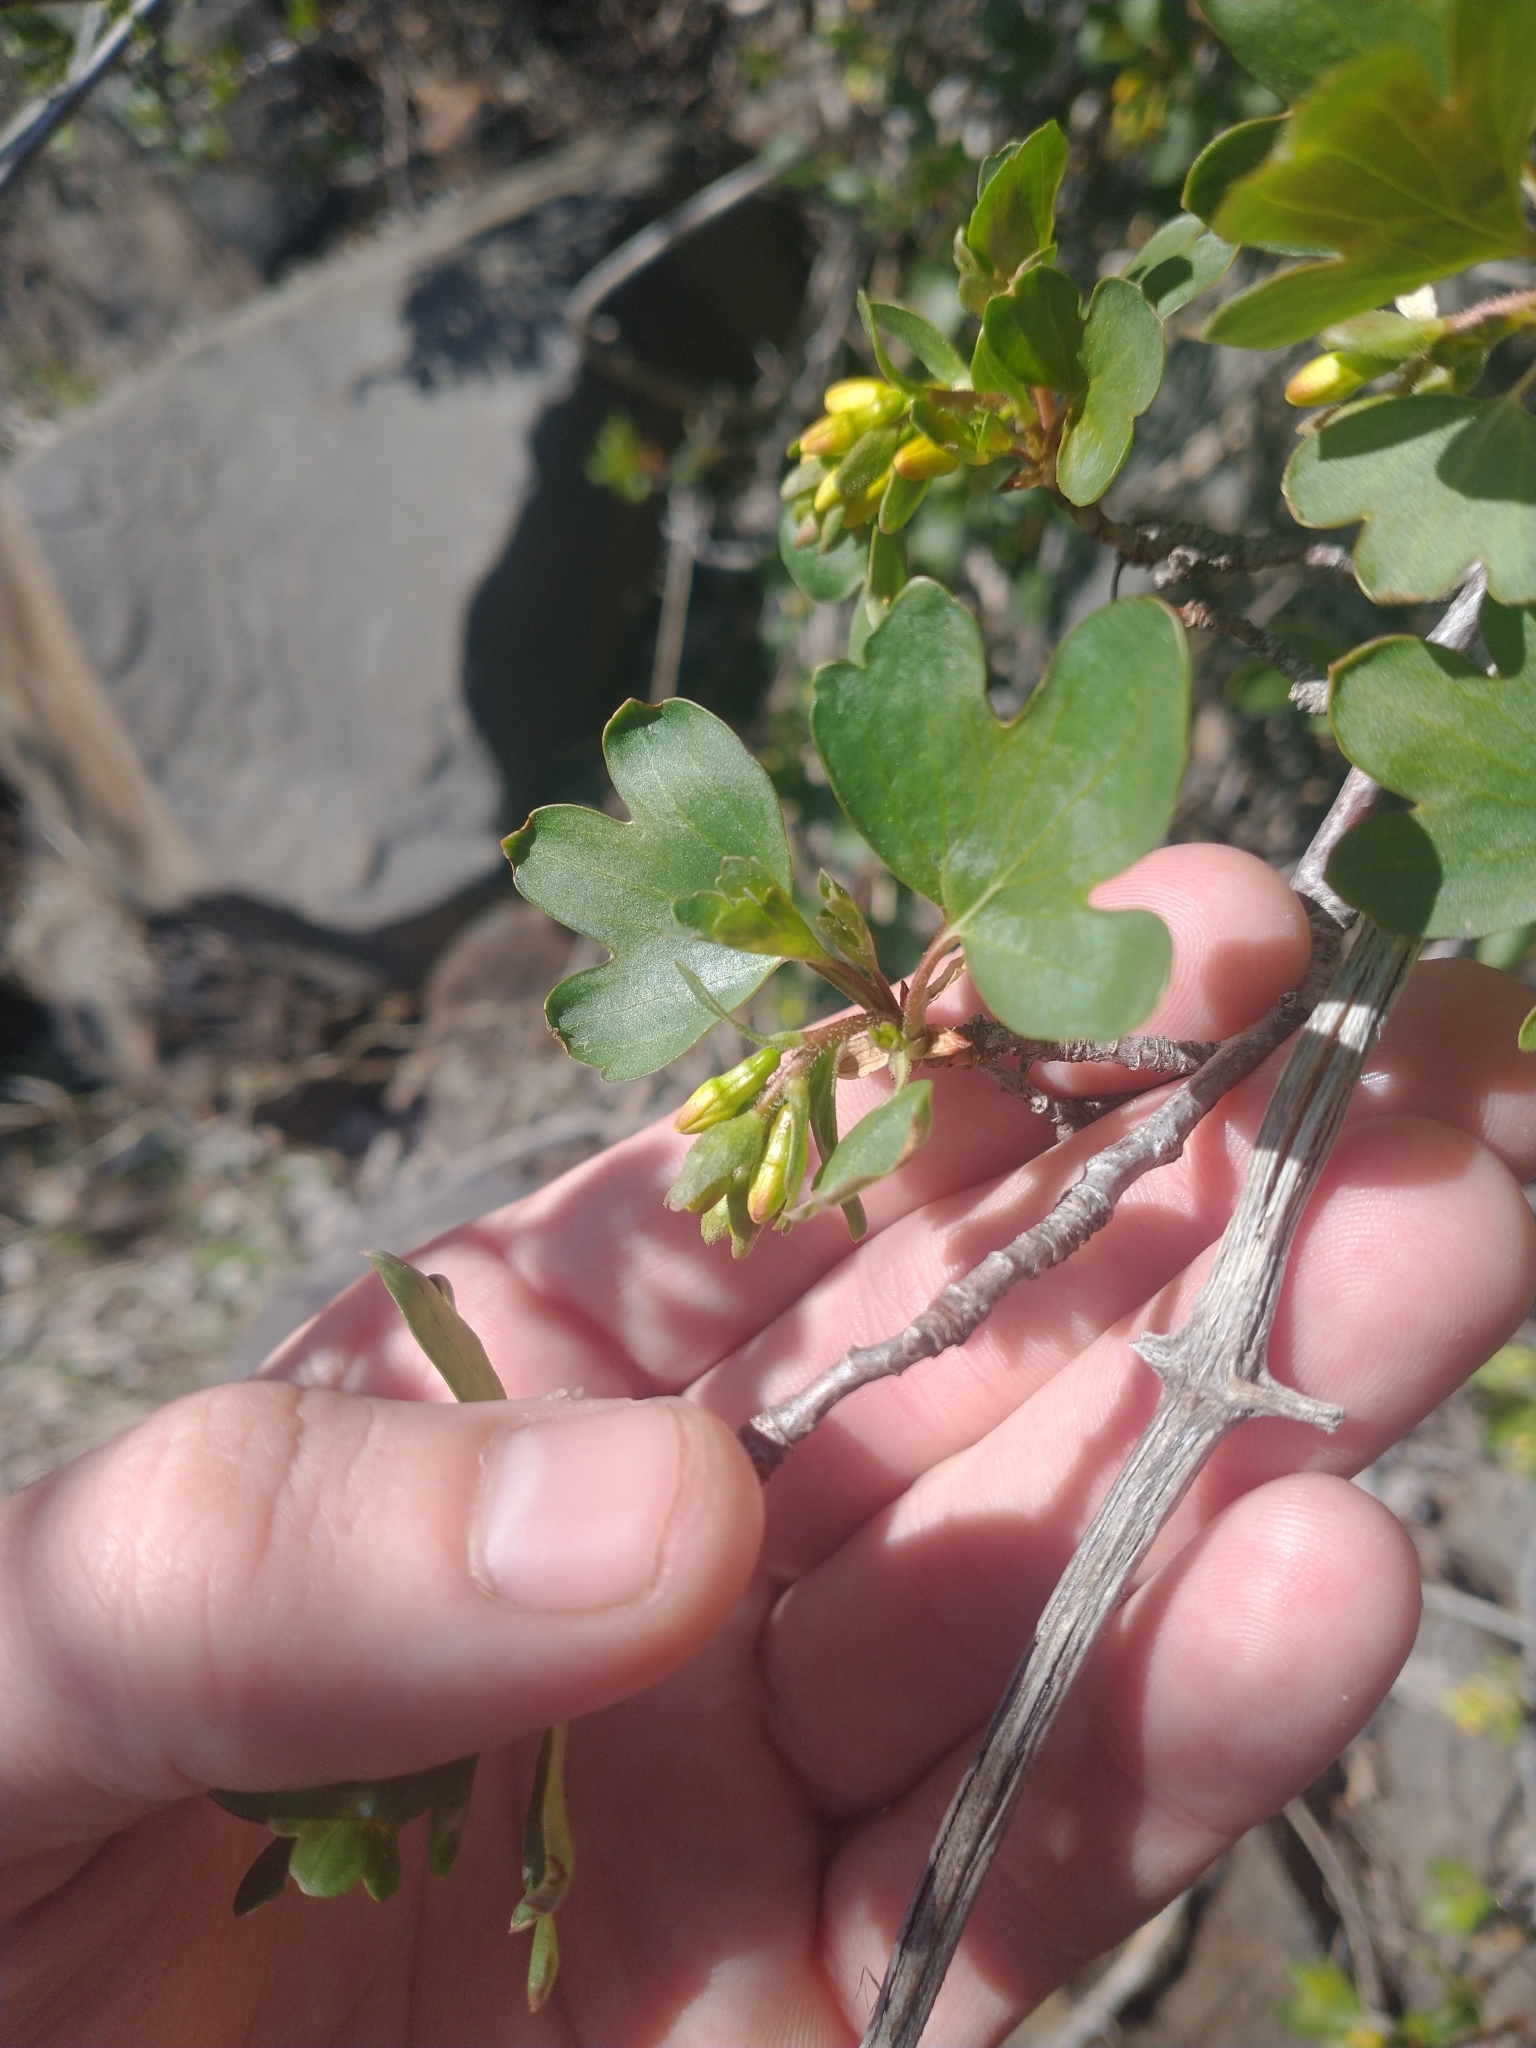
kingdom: Plantae
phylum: Tracheophyta
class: Magnoliopsida
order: Saxifragales
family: Grossulariaceae
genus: Ribes
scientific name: Ribes aureum
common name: Golden currant
